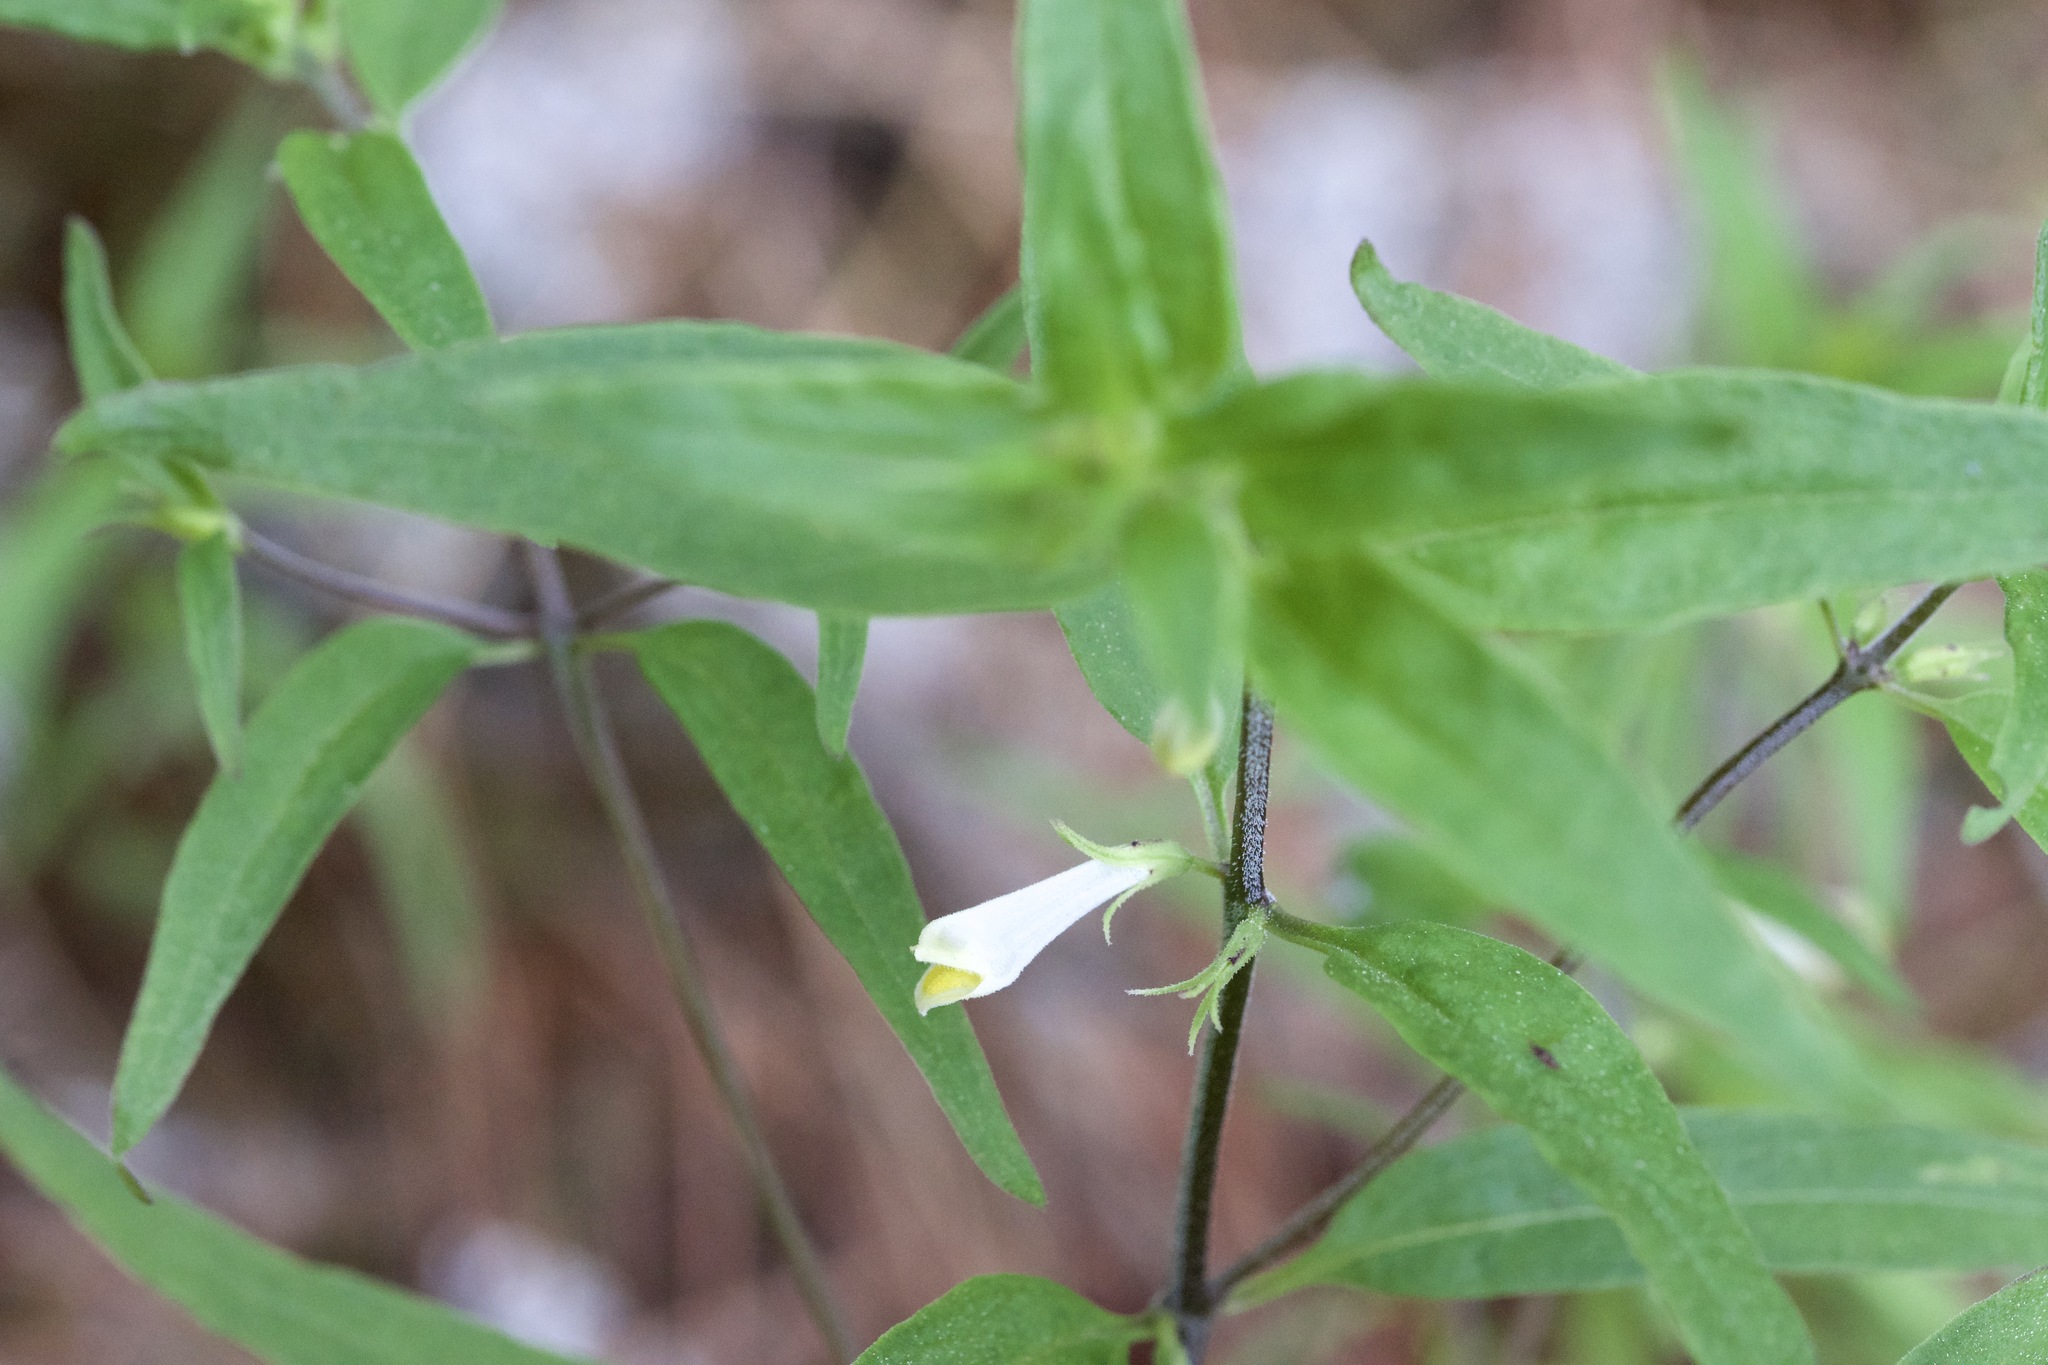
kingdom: Plantae
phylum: Tracheophyta
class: Magnoliopsida
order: Lamiales
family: Orobanchaceae
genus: Melampyrum
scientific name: Melampyrum lineare
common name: American cow-wheat
